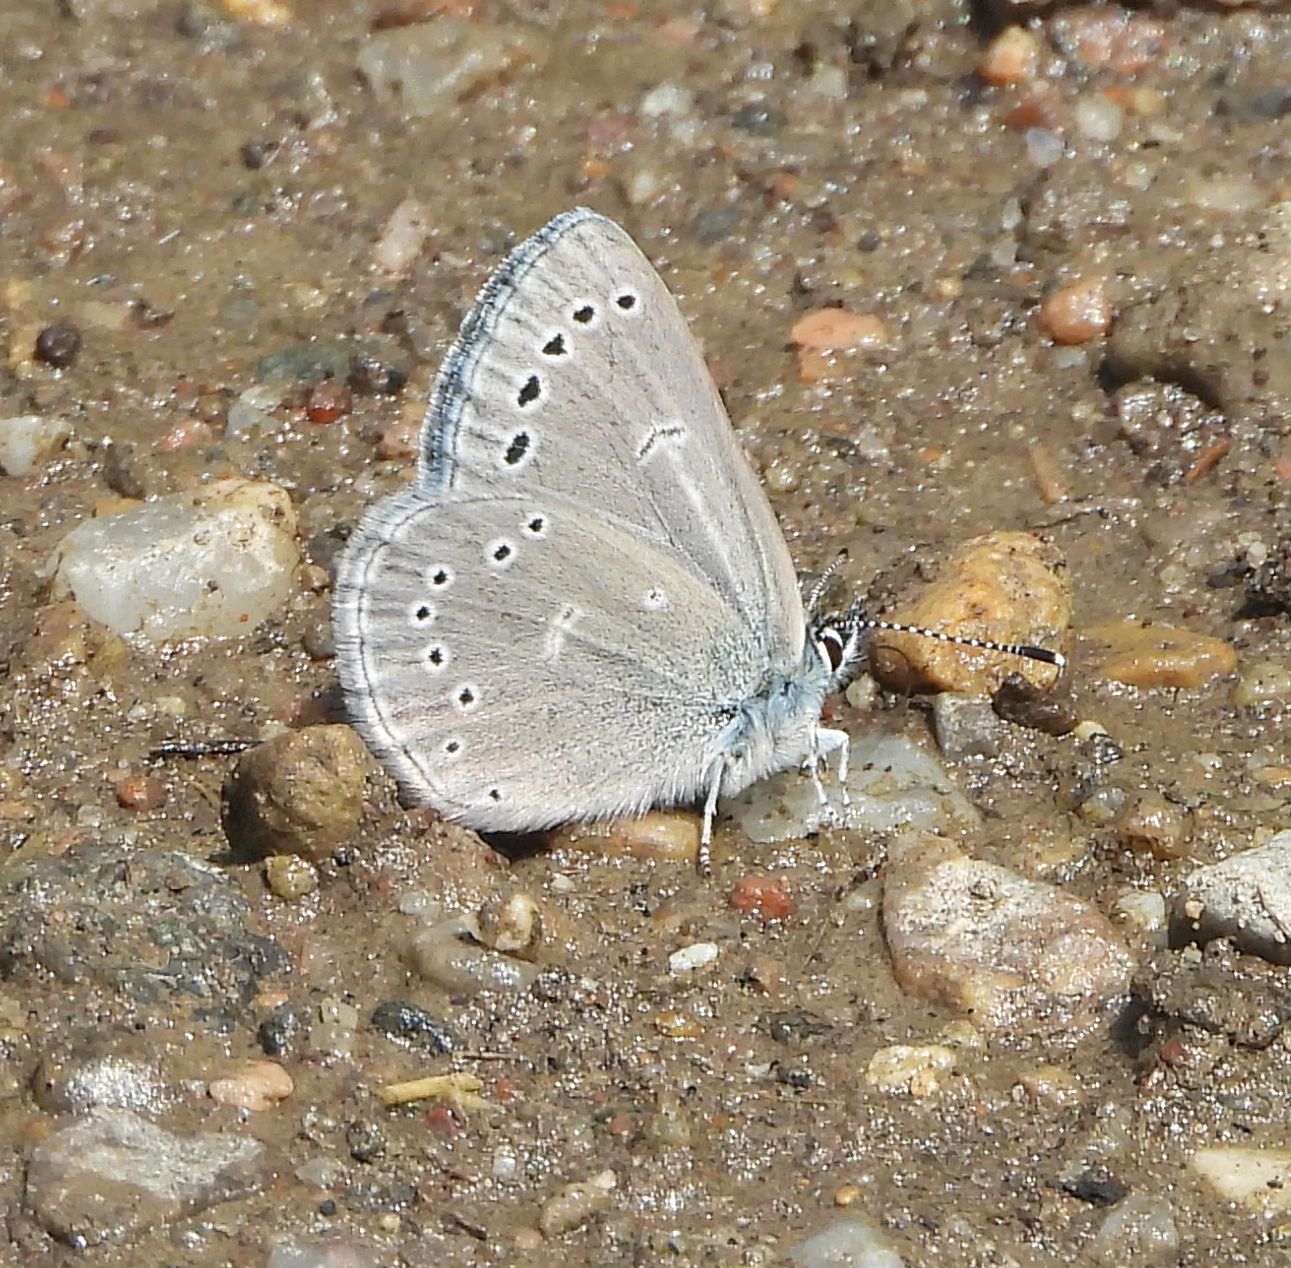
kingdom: Animalia
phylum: Arthropoda
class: Insecta
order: Lepidoptera
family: Lycaenidae
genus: Glaucopsyche
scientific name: Glaucopsyche lygdamus
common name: Silvery blue
